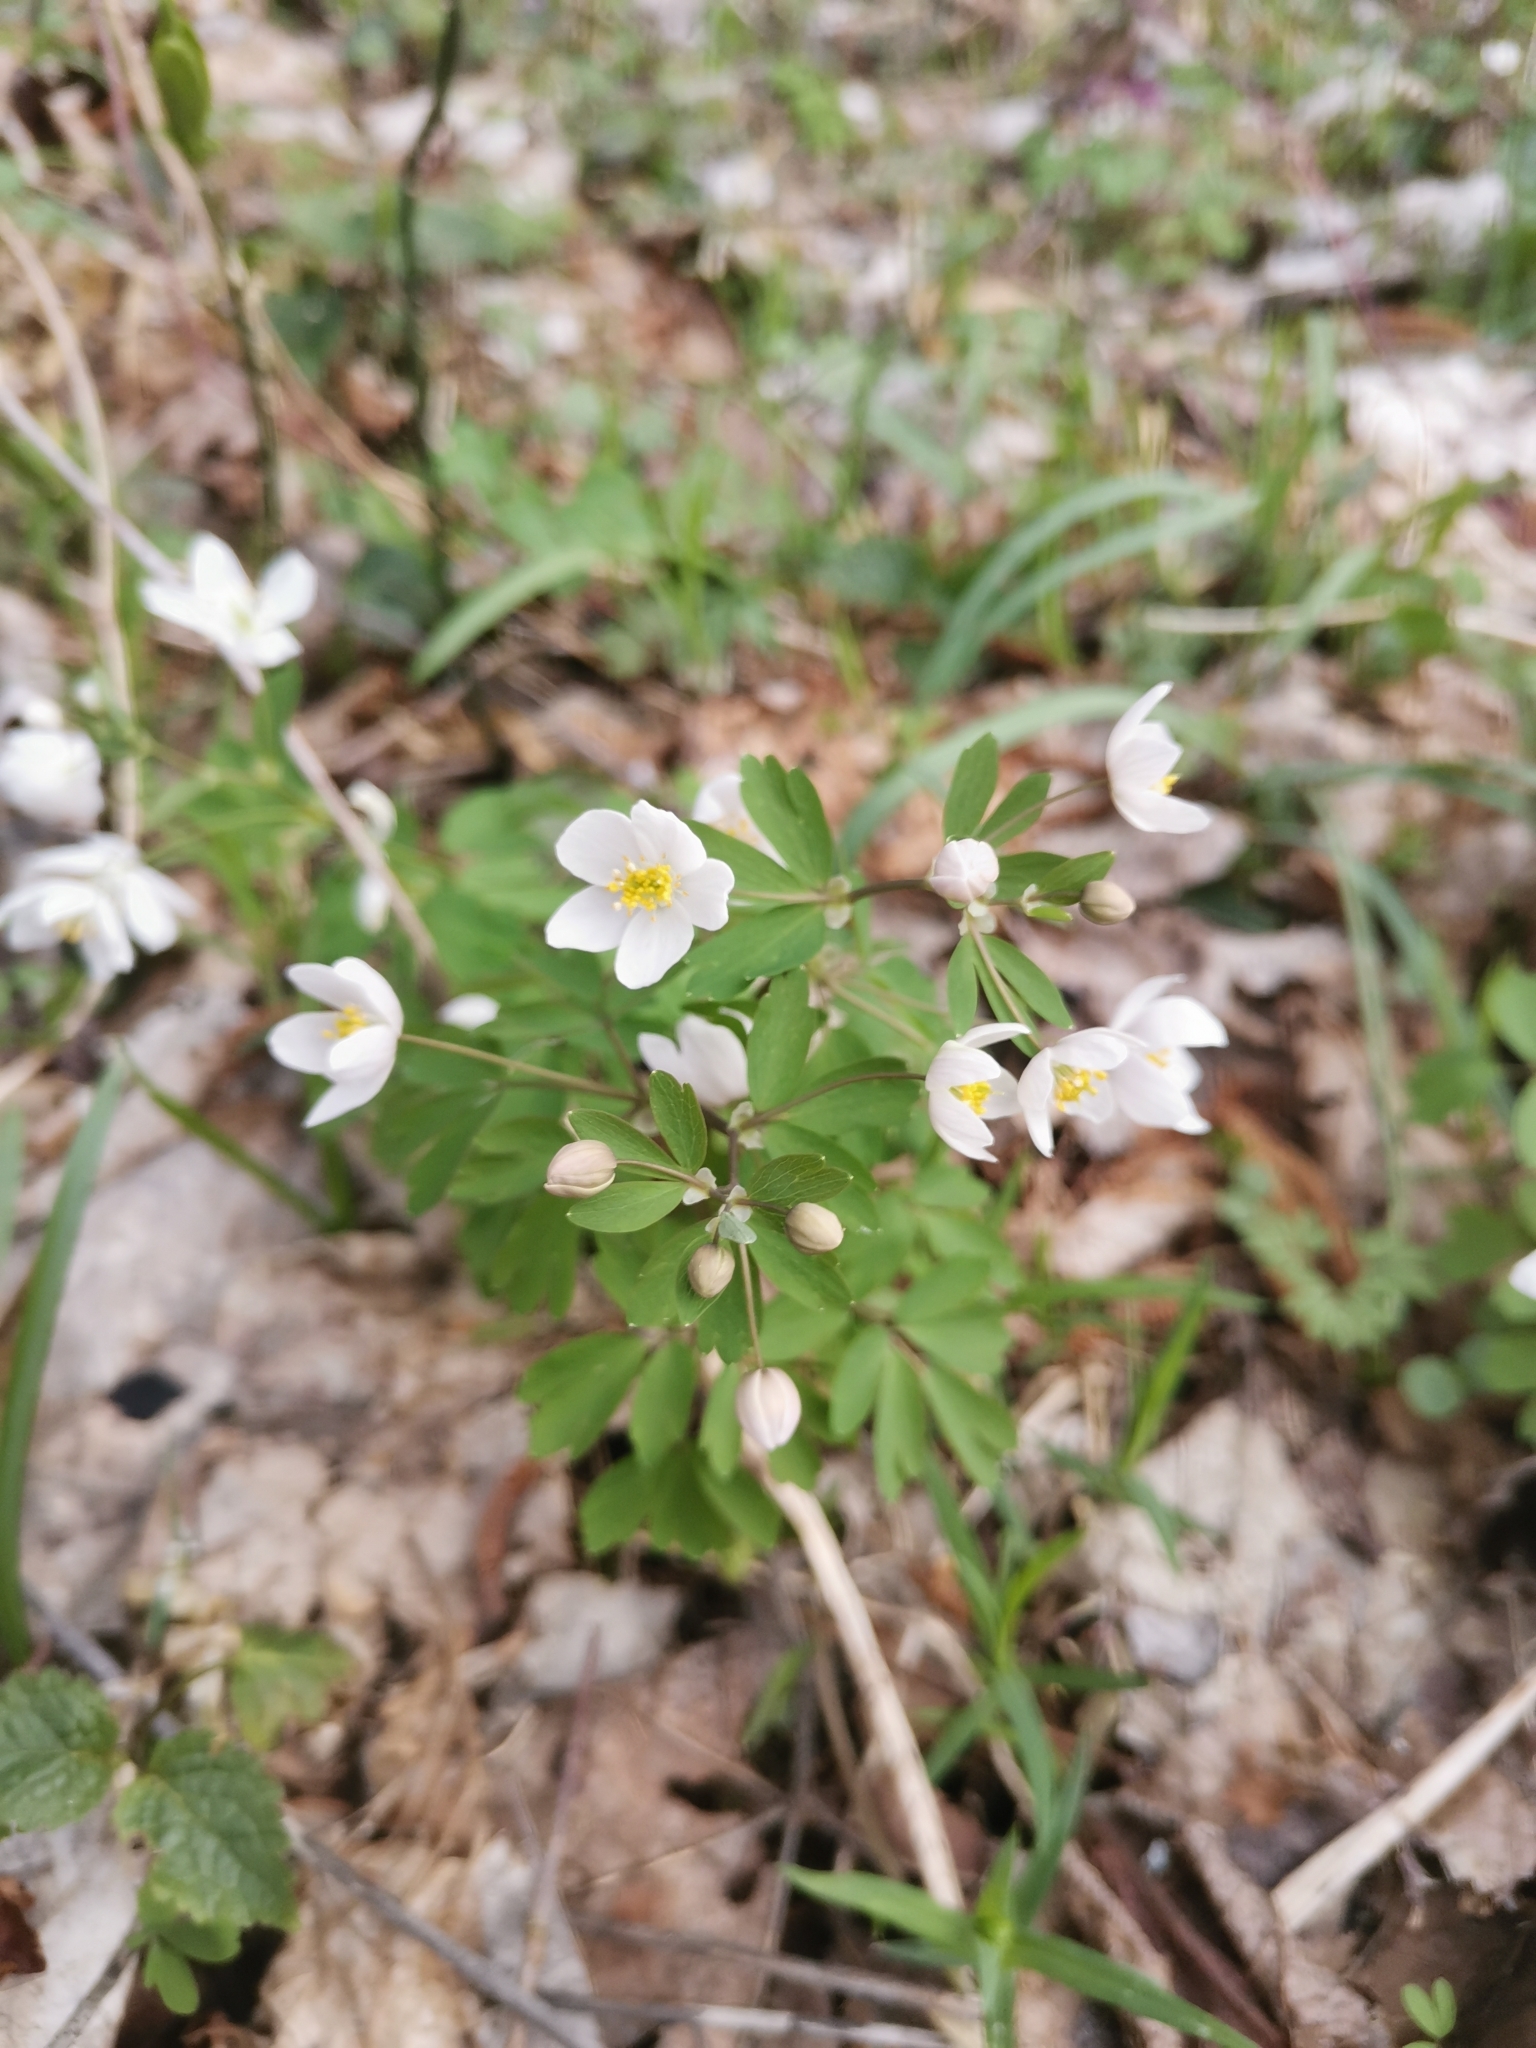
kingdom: Plantae
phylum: Tracheophyta
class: Magnoliopsida
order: Ranunculales
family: Ranunculaceae
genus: Isopyrum
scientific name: Isopyrum thalictroides
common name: Isopyrum
